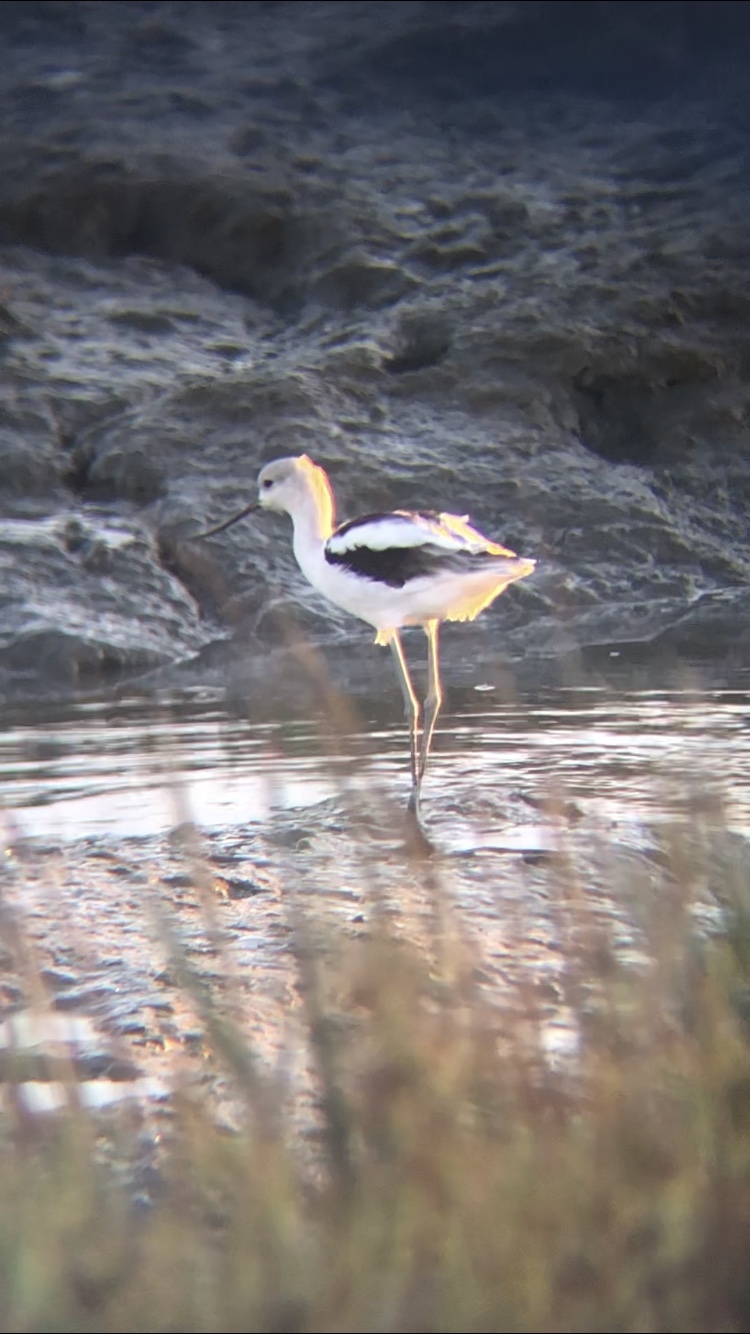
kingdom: Animalia
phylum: Chordata
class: Aves
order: Charadriiformes
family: Recurvirostridae
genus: Recurvirostra
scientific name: Recurvirostra americana
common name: American avocet
